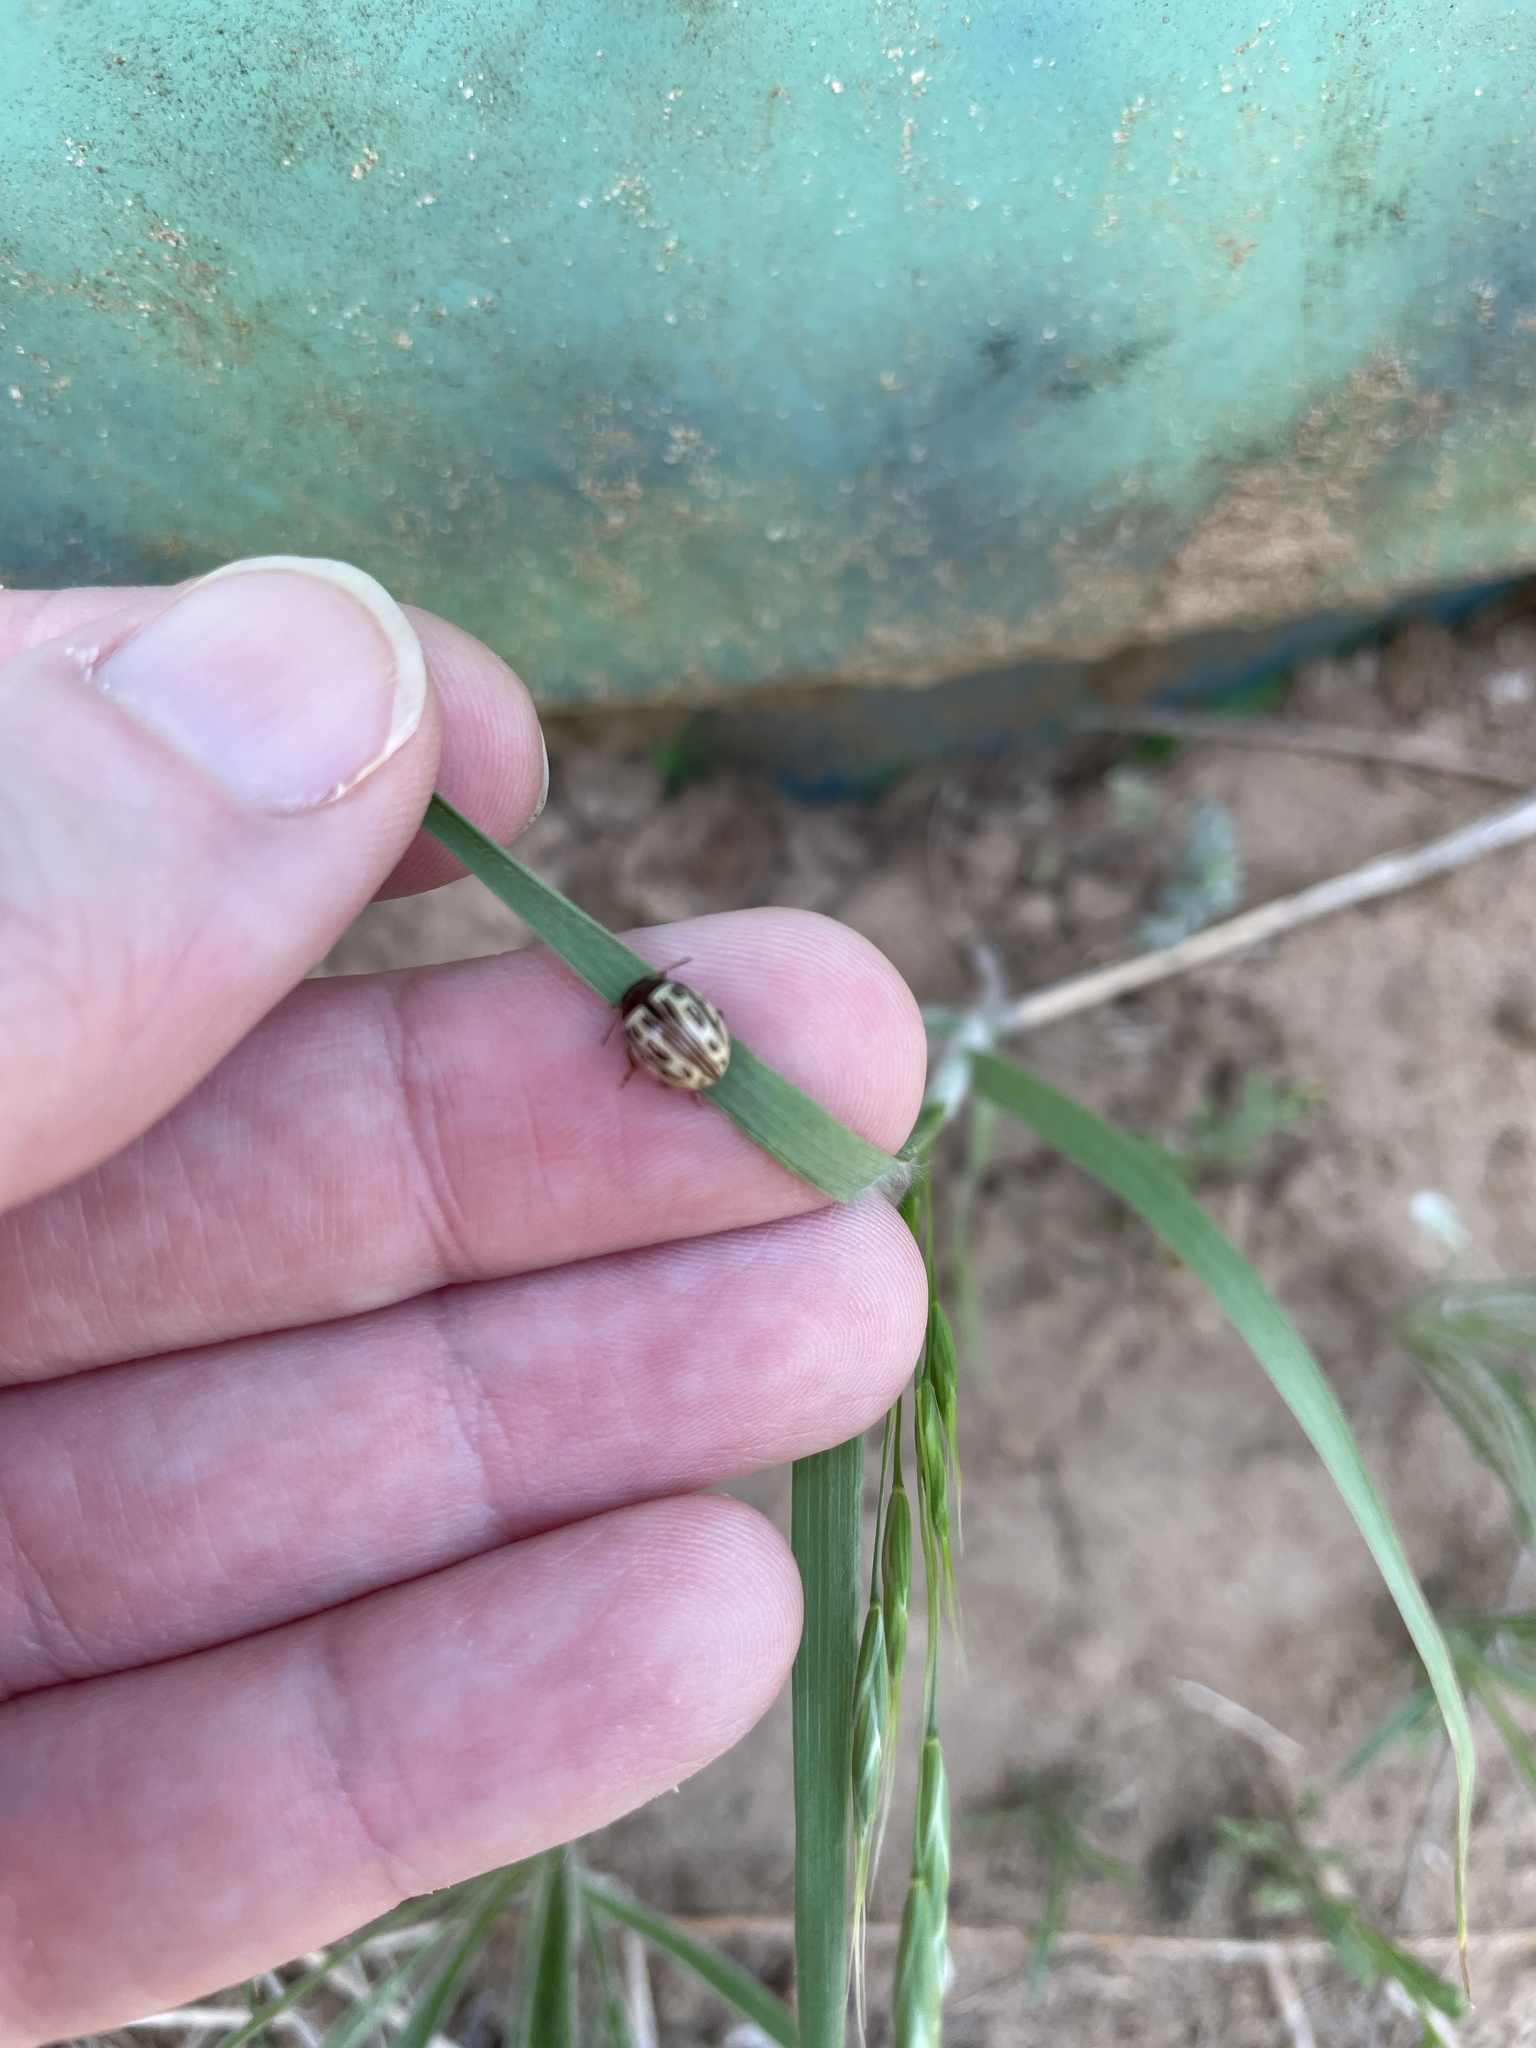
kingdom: Animalia
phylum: Arthropoda
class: Insecta
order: Coleoptera
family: Chrysomelidae
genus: Calligrapha
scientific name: Calligrapha
